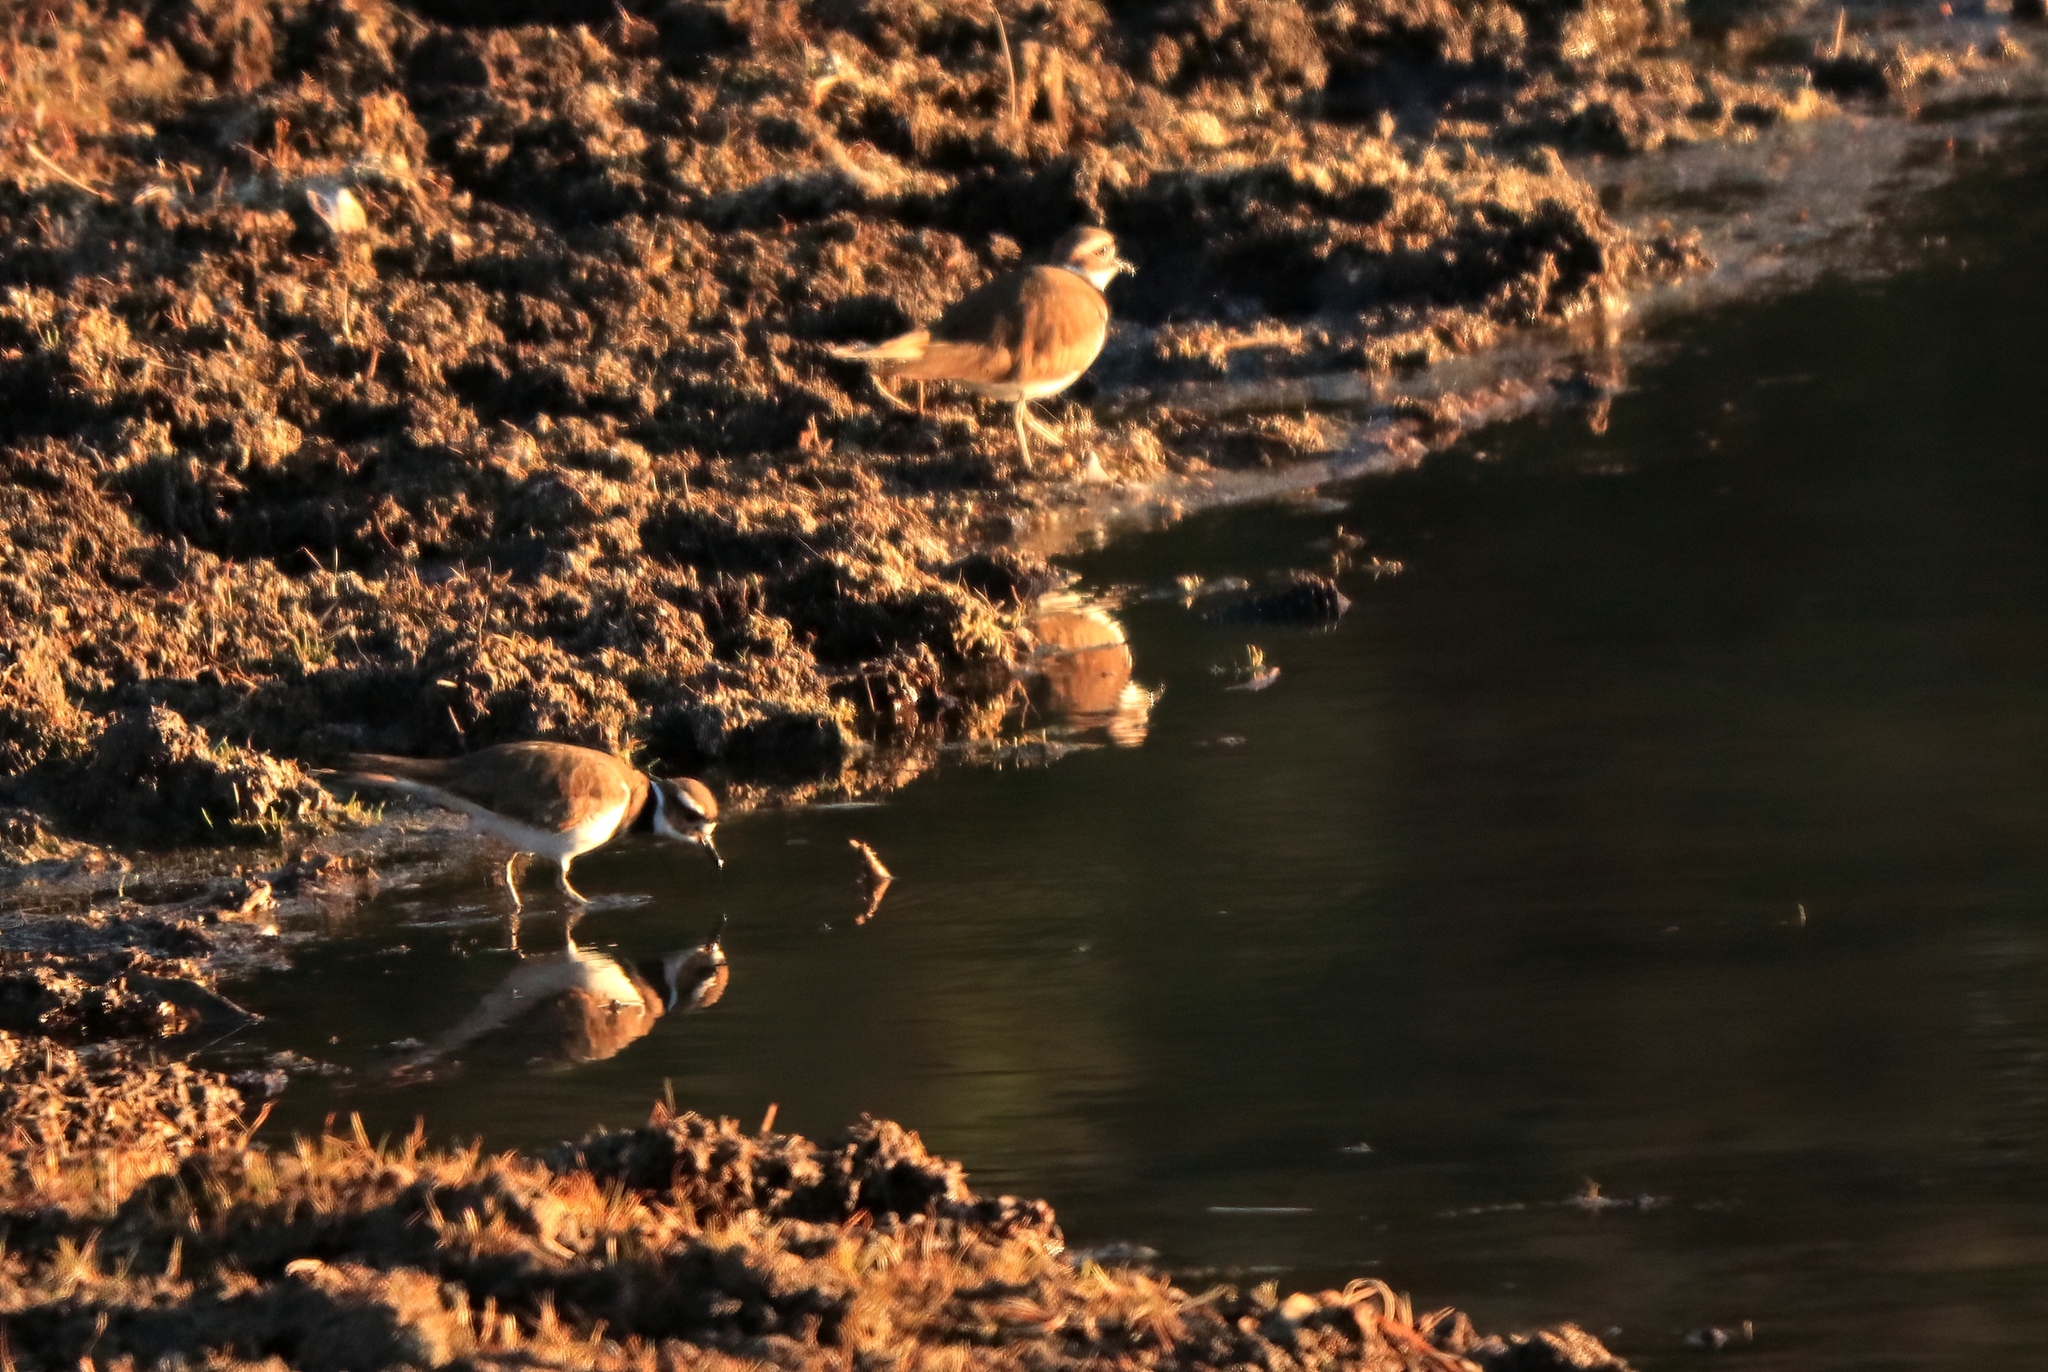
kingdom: Animalia
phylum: Chordata
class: Aves
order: Charadriiformes
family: Charadriidae
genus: Charadrius
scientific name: Charadrius vociferus
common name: Killdeer
